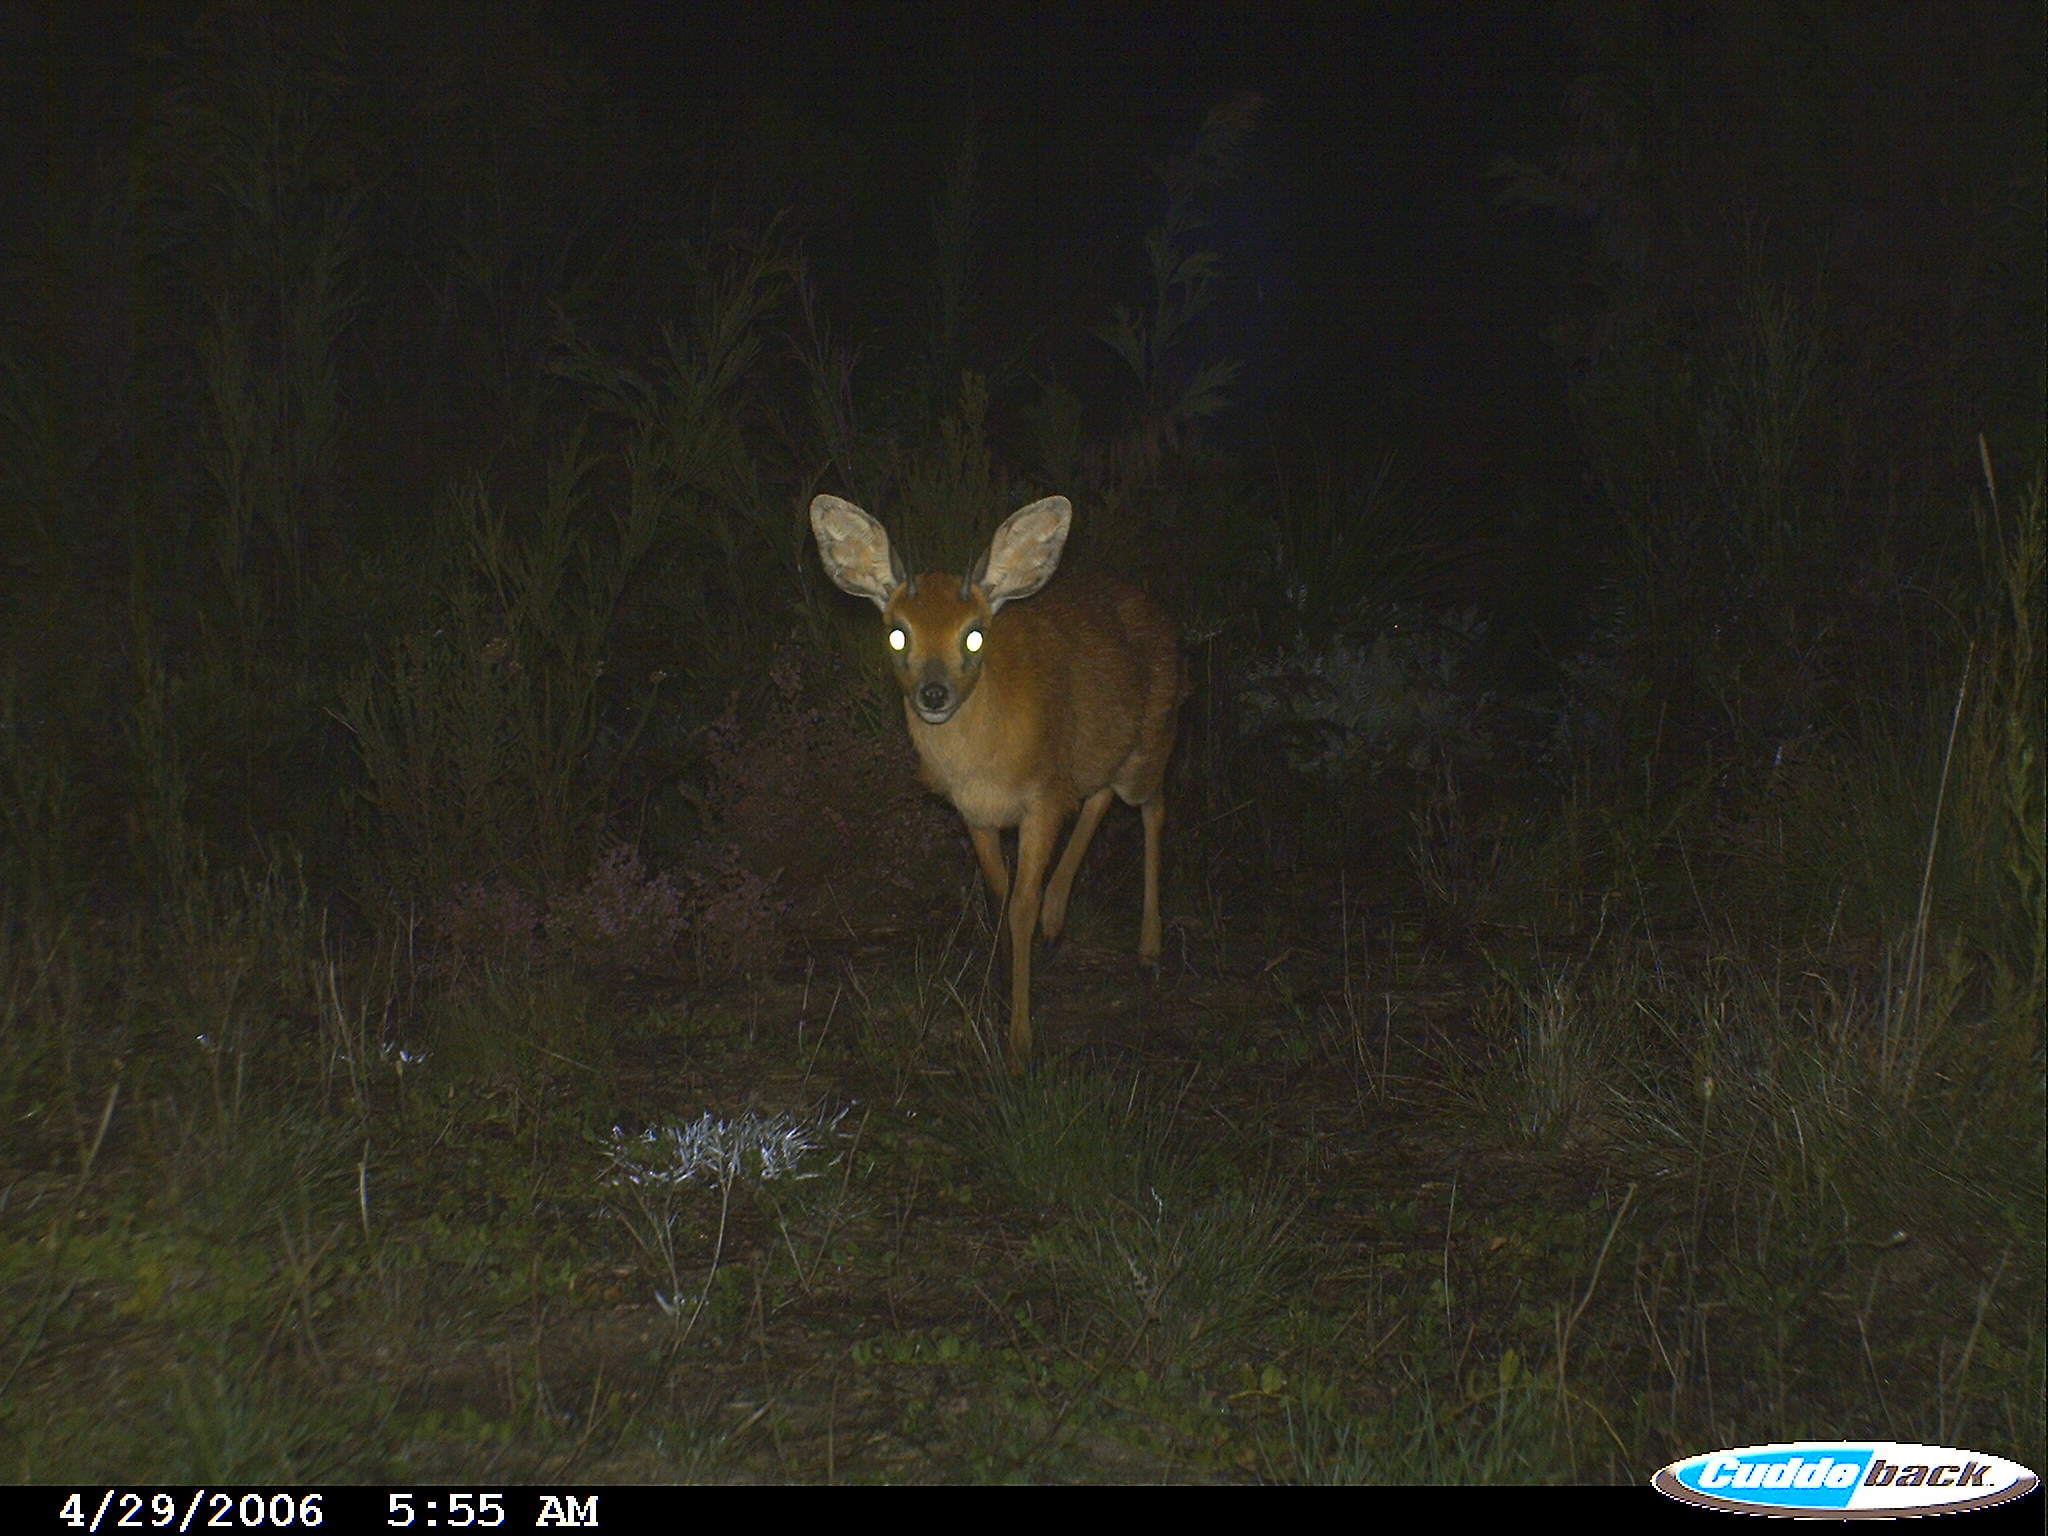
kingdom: Animalia
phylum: Chordata
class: Mammalia
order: Artiodactyla
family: Bovidae
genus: Raphicerus
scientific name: Raphicerus melanotis
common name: Cape grysbok
